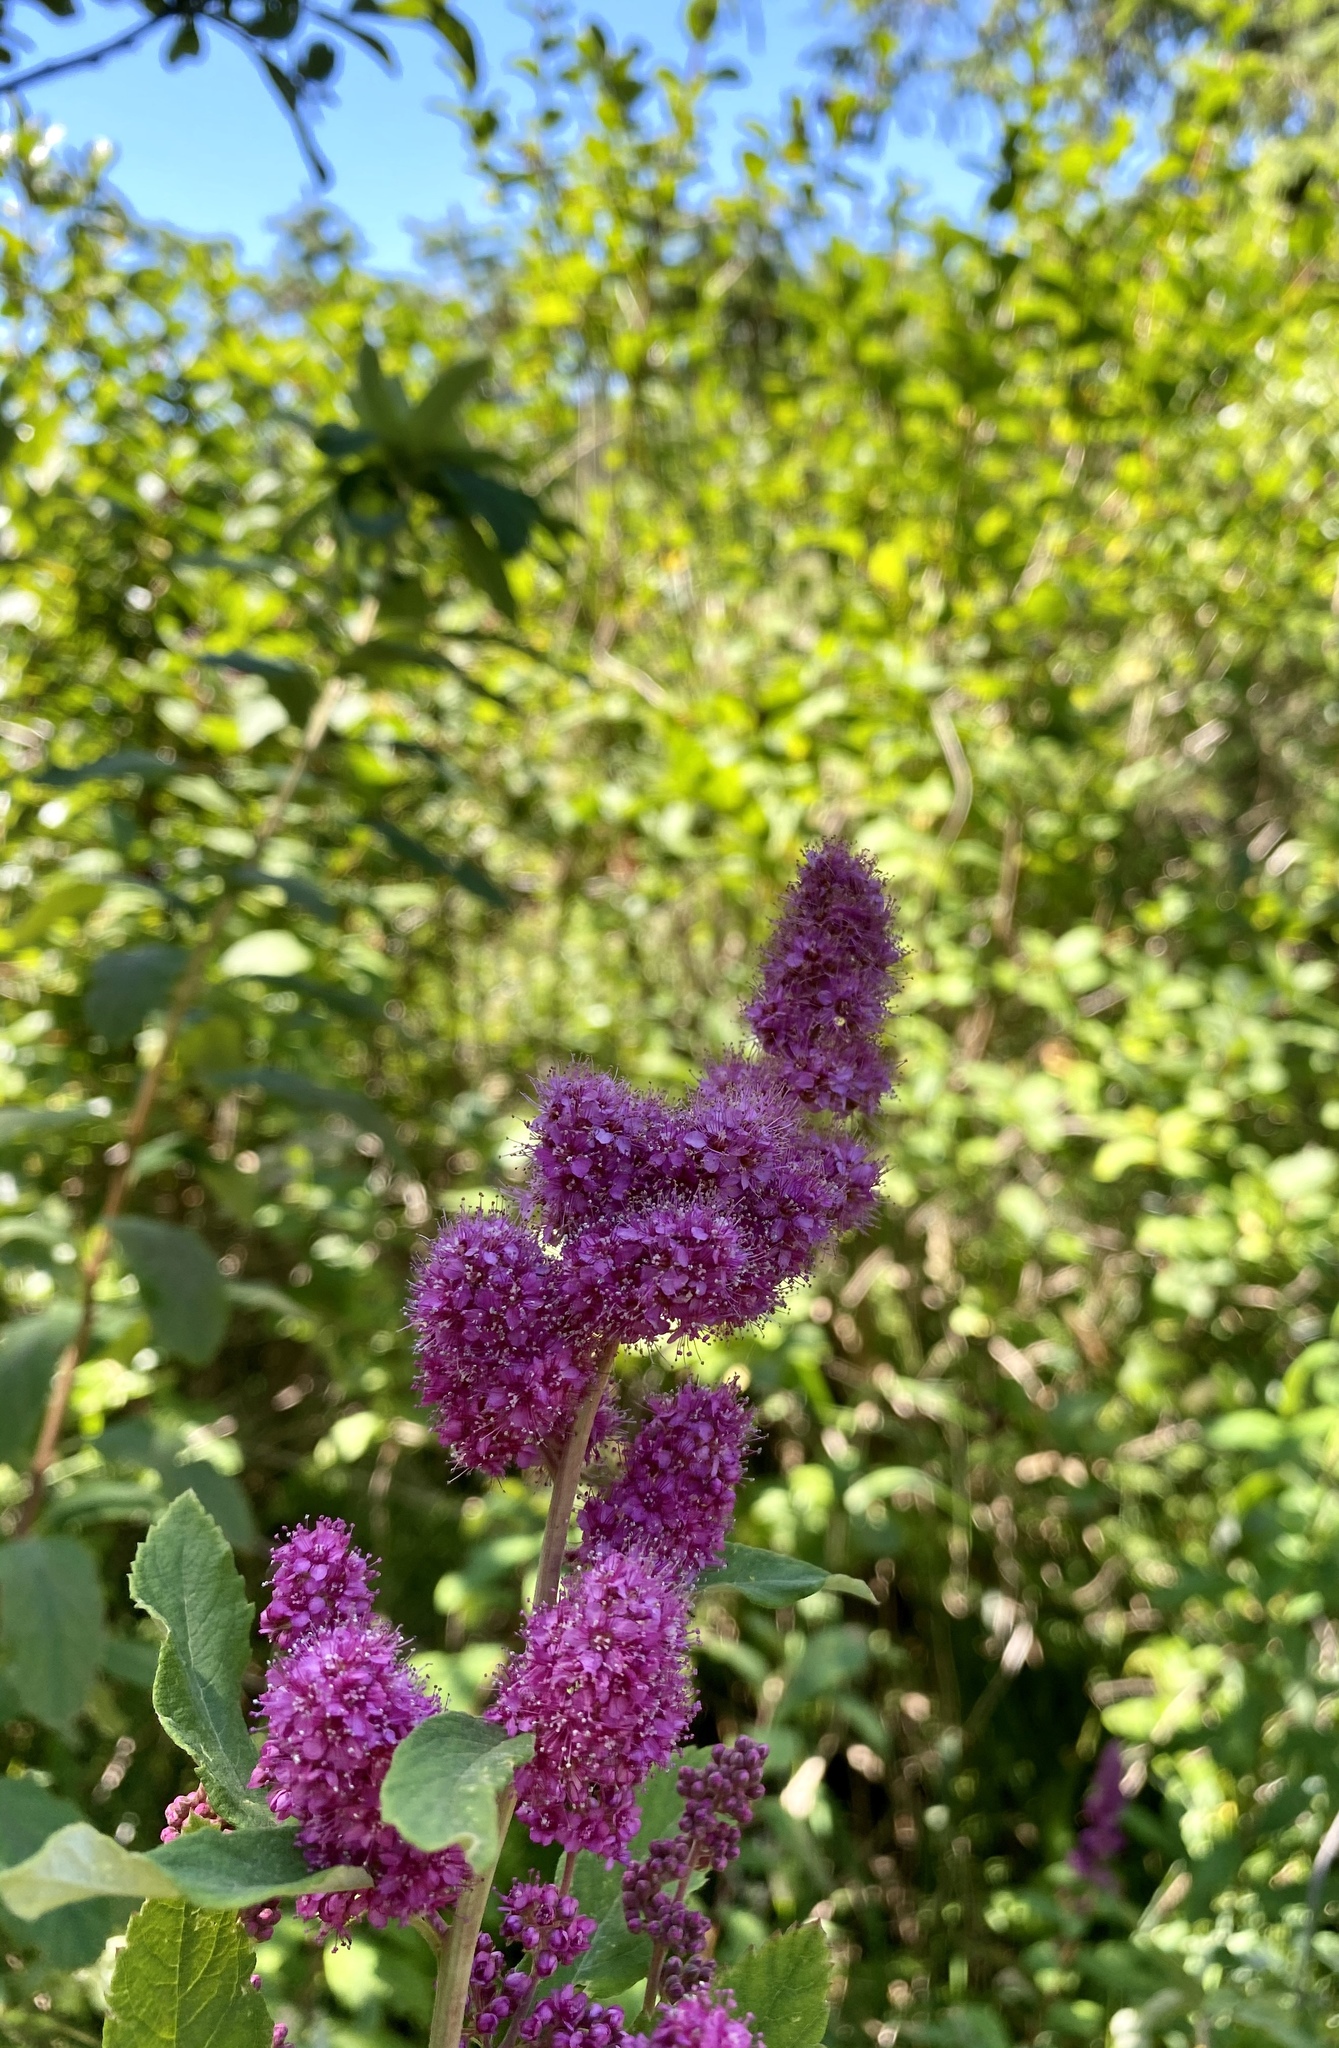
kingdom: Plantae
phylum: Tracheophyta
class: Magnoliopsida
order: Rosales
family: Rosaceae
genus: Spiraea
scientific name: Spiraea douglasii
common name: Steeplebush
